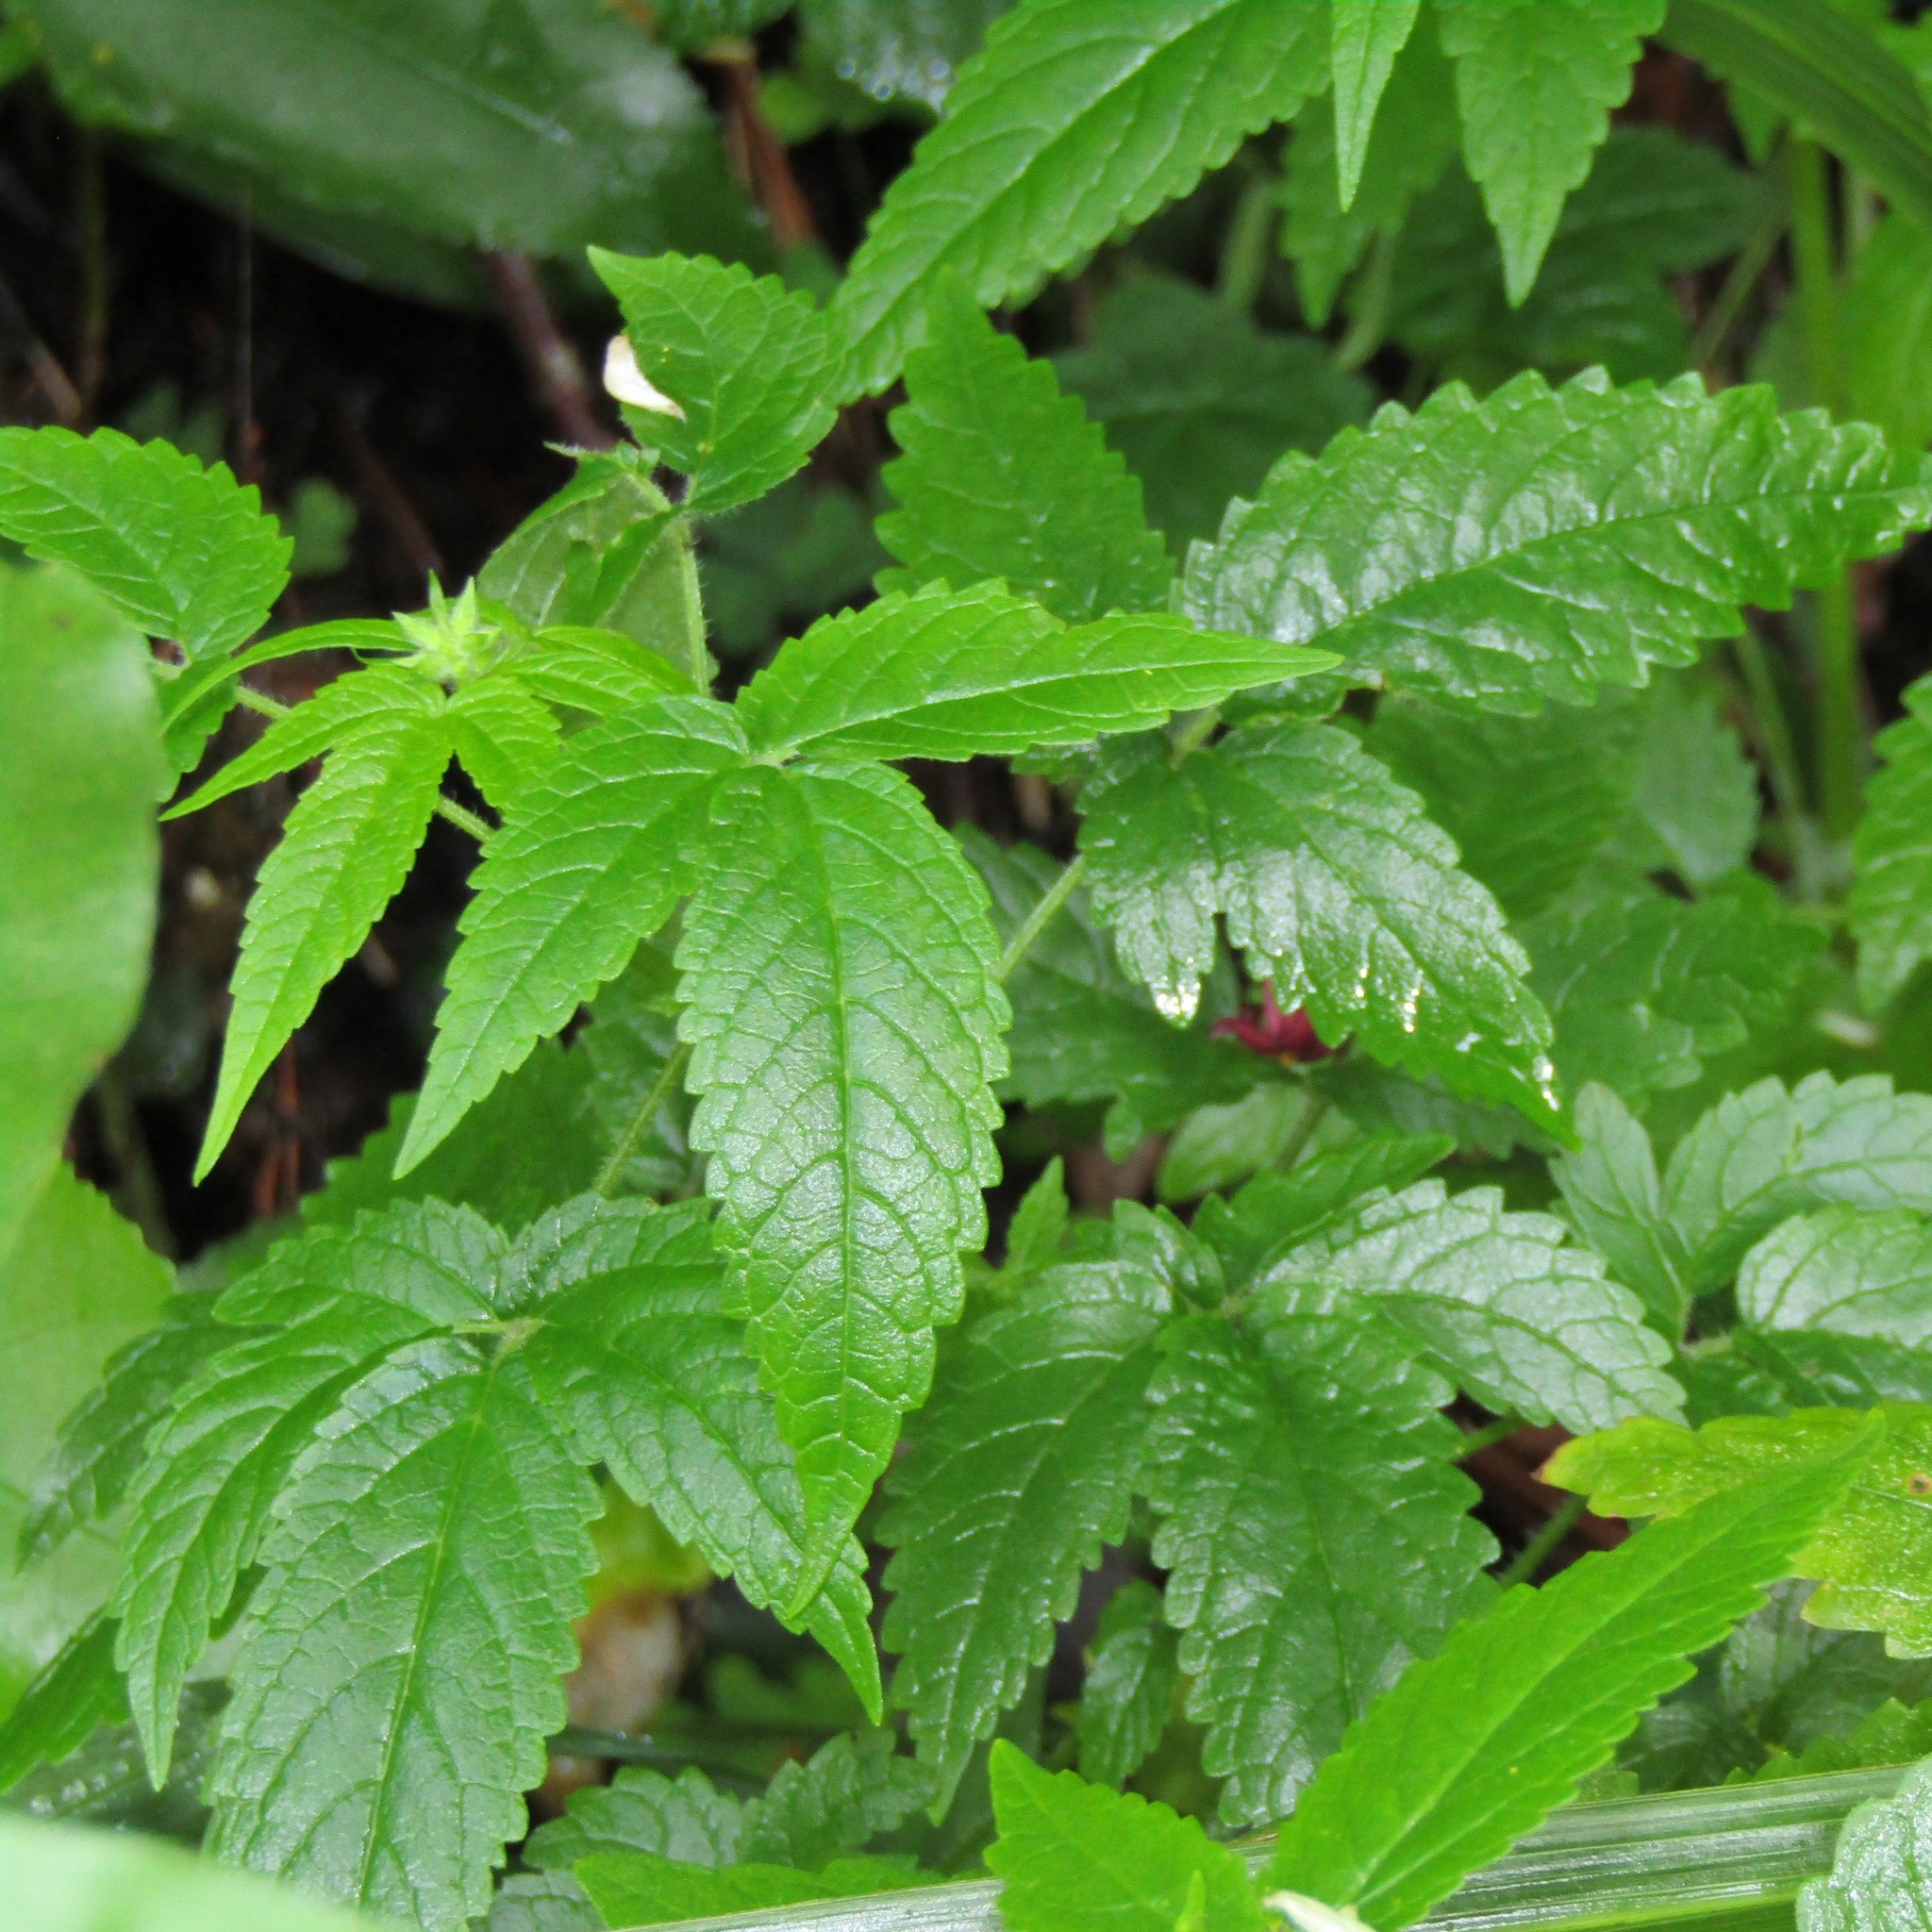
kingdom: Plantae
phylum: Tracheophyta
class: Magnoliopsida
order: Lamiales
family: Lamiaceae
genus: Cedronella
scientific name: Cedronella canariensis
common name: Canary islands balm
